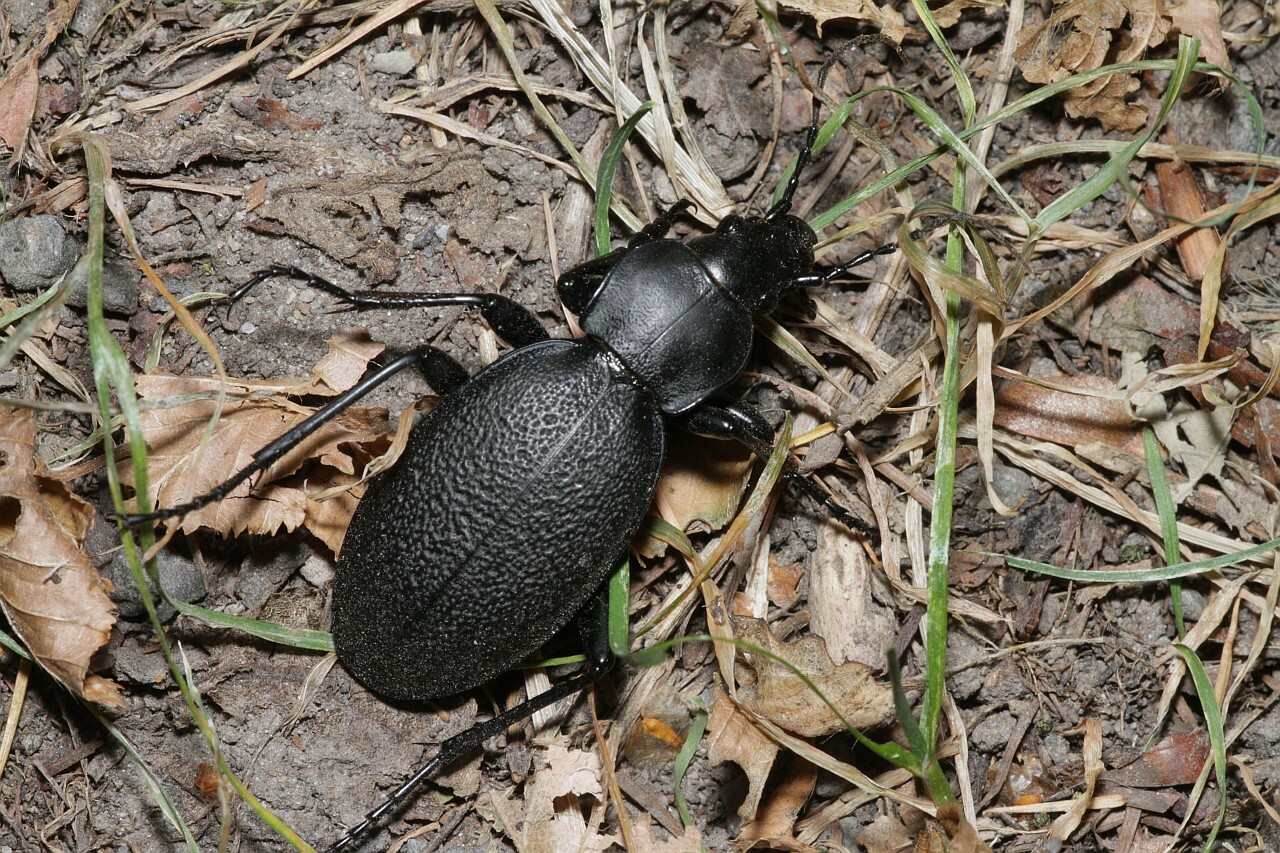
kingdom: Animalia
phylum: Arthropoda
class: Insecta
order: Coleoptera
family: Carabidae
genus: Carabus
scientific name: Carabus coriaceus
